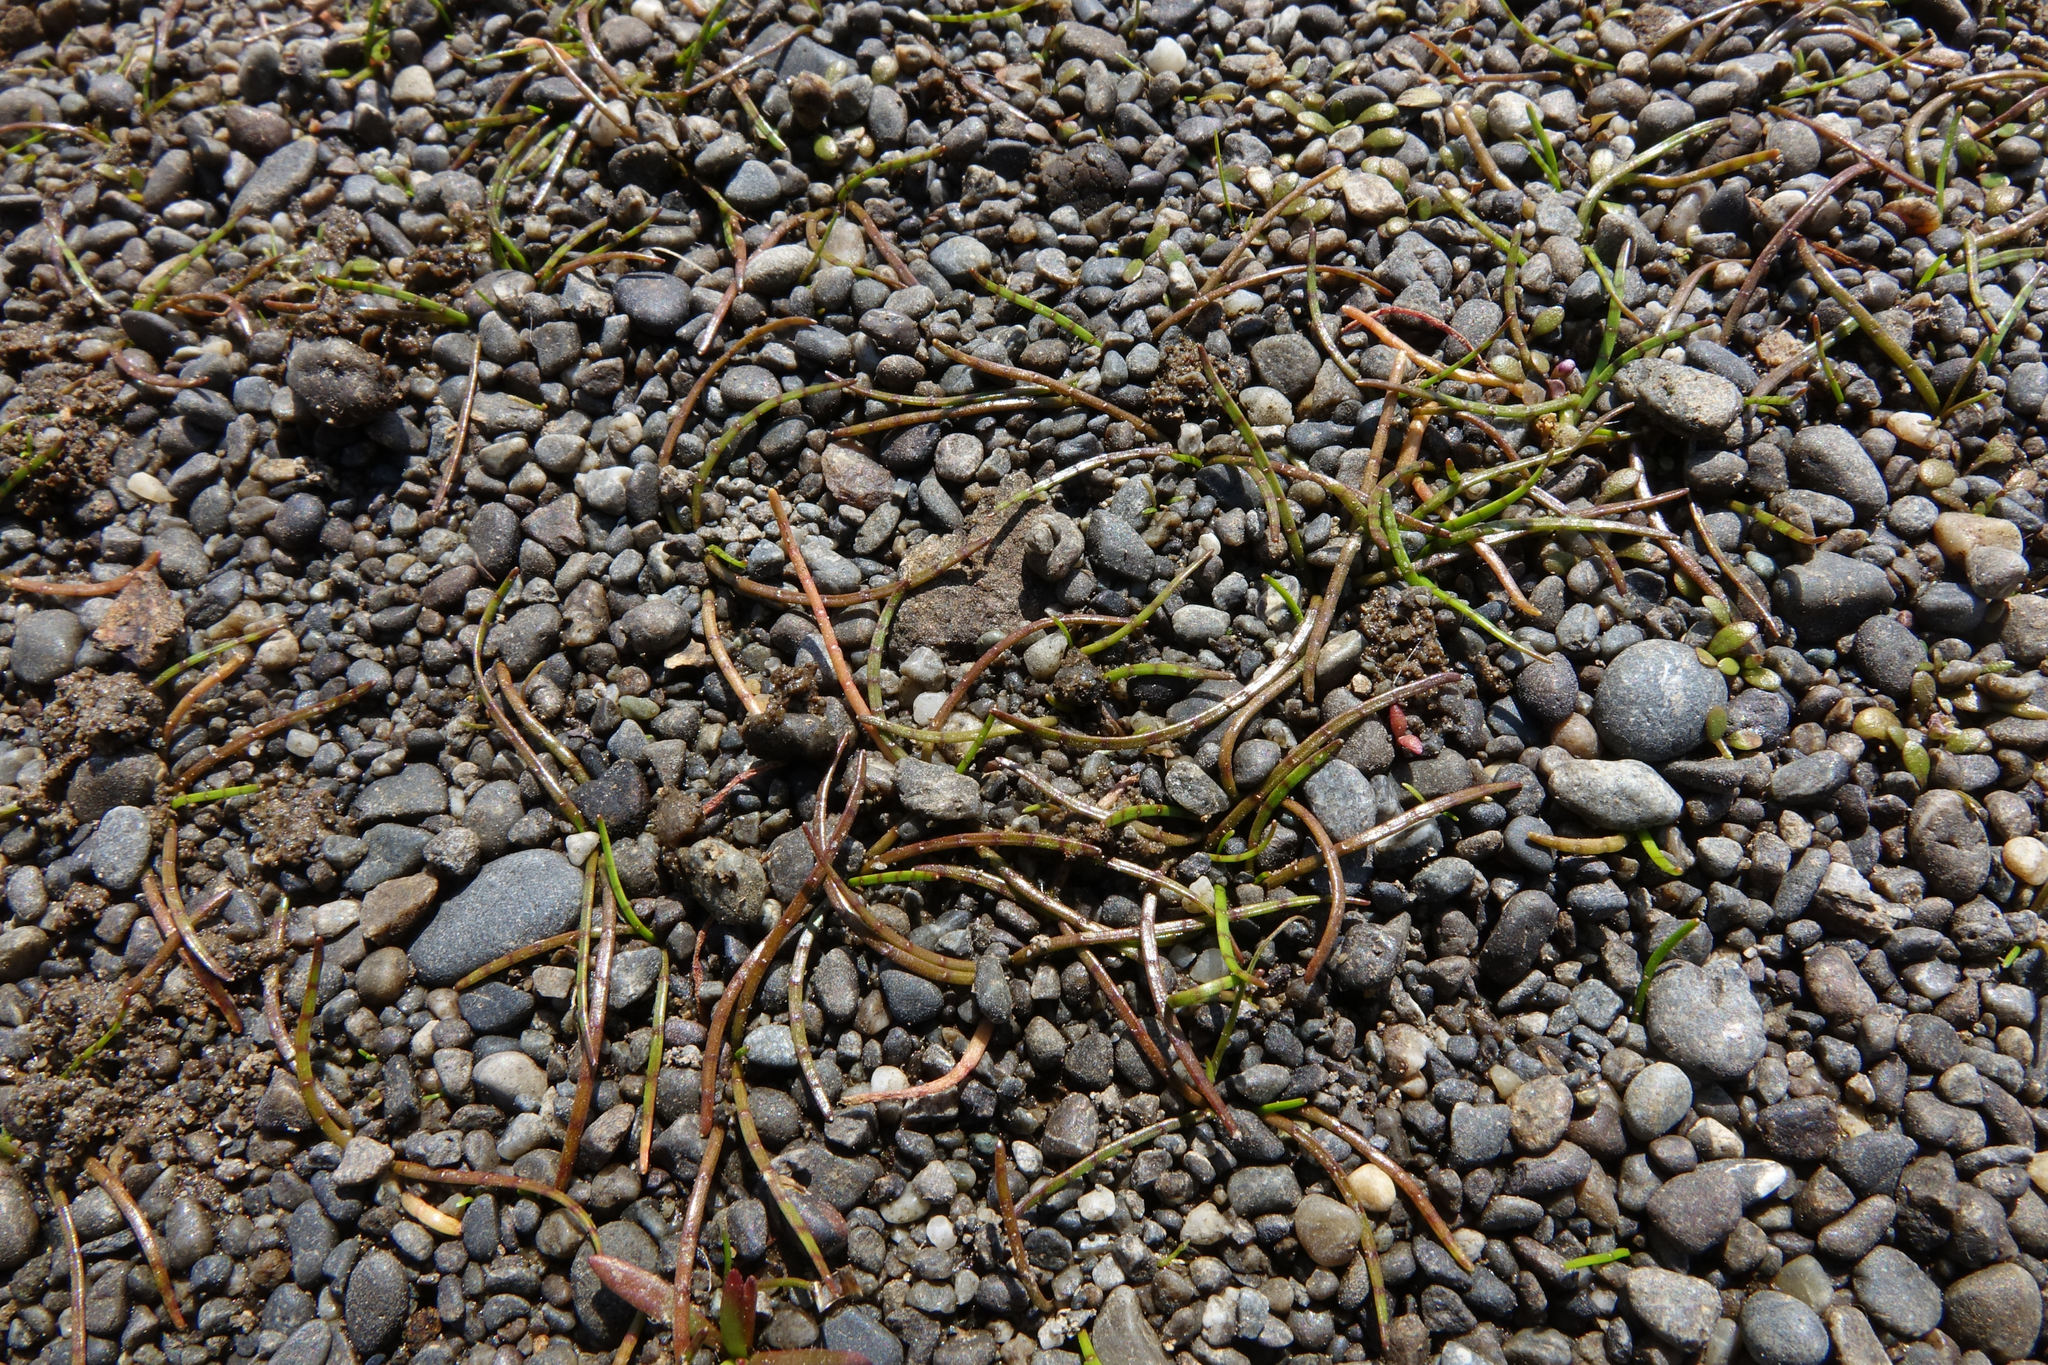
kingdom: Plantae
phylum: Tracheophyta
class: Magnoliopsida
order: Apiales
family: Apiaceae
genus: Lilaeopsis
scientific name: Lilaeopsis novae-zelandiae
